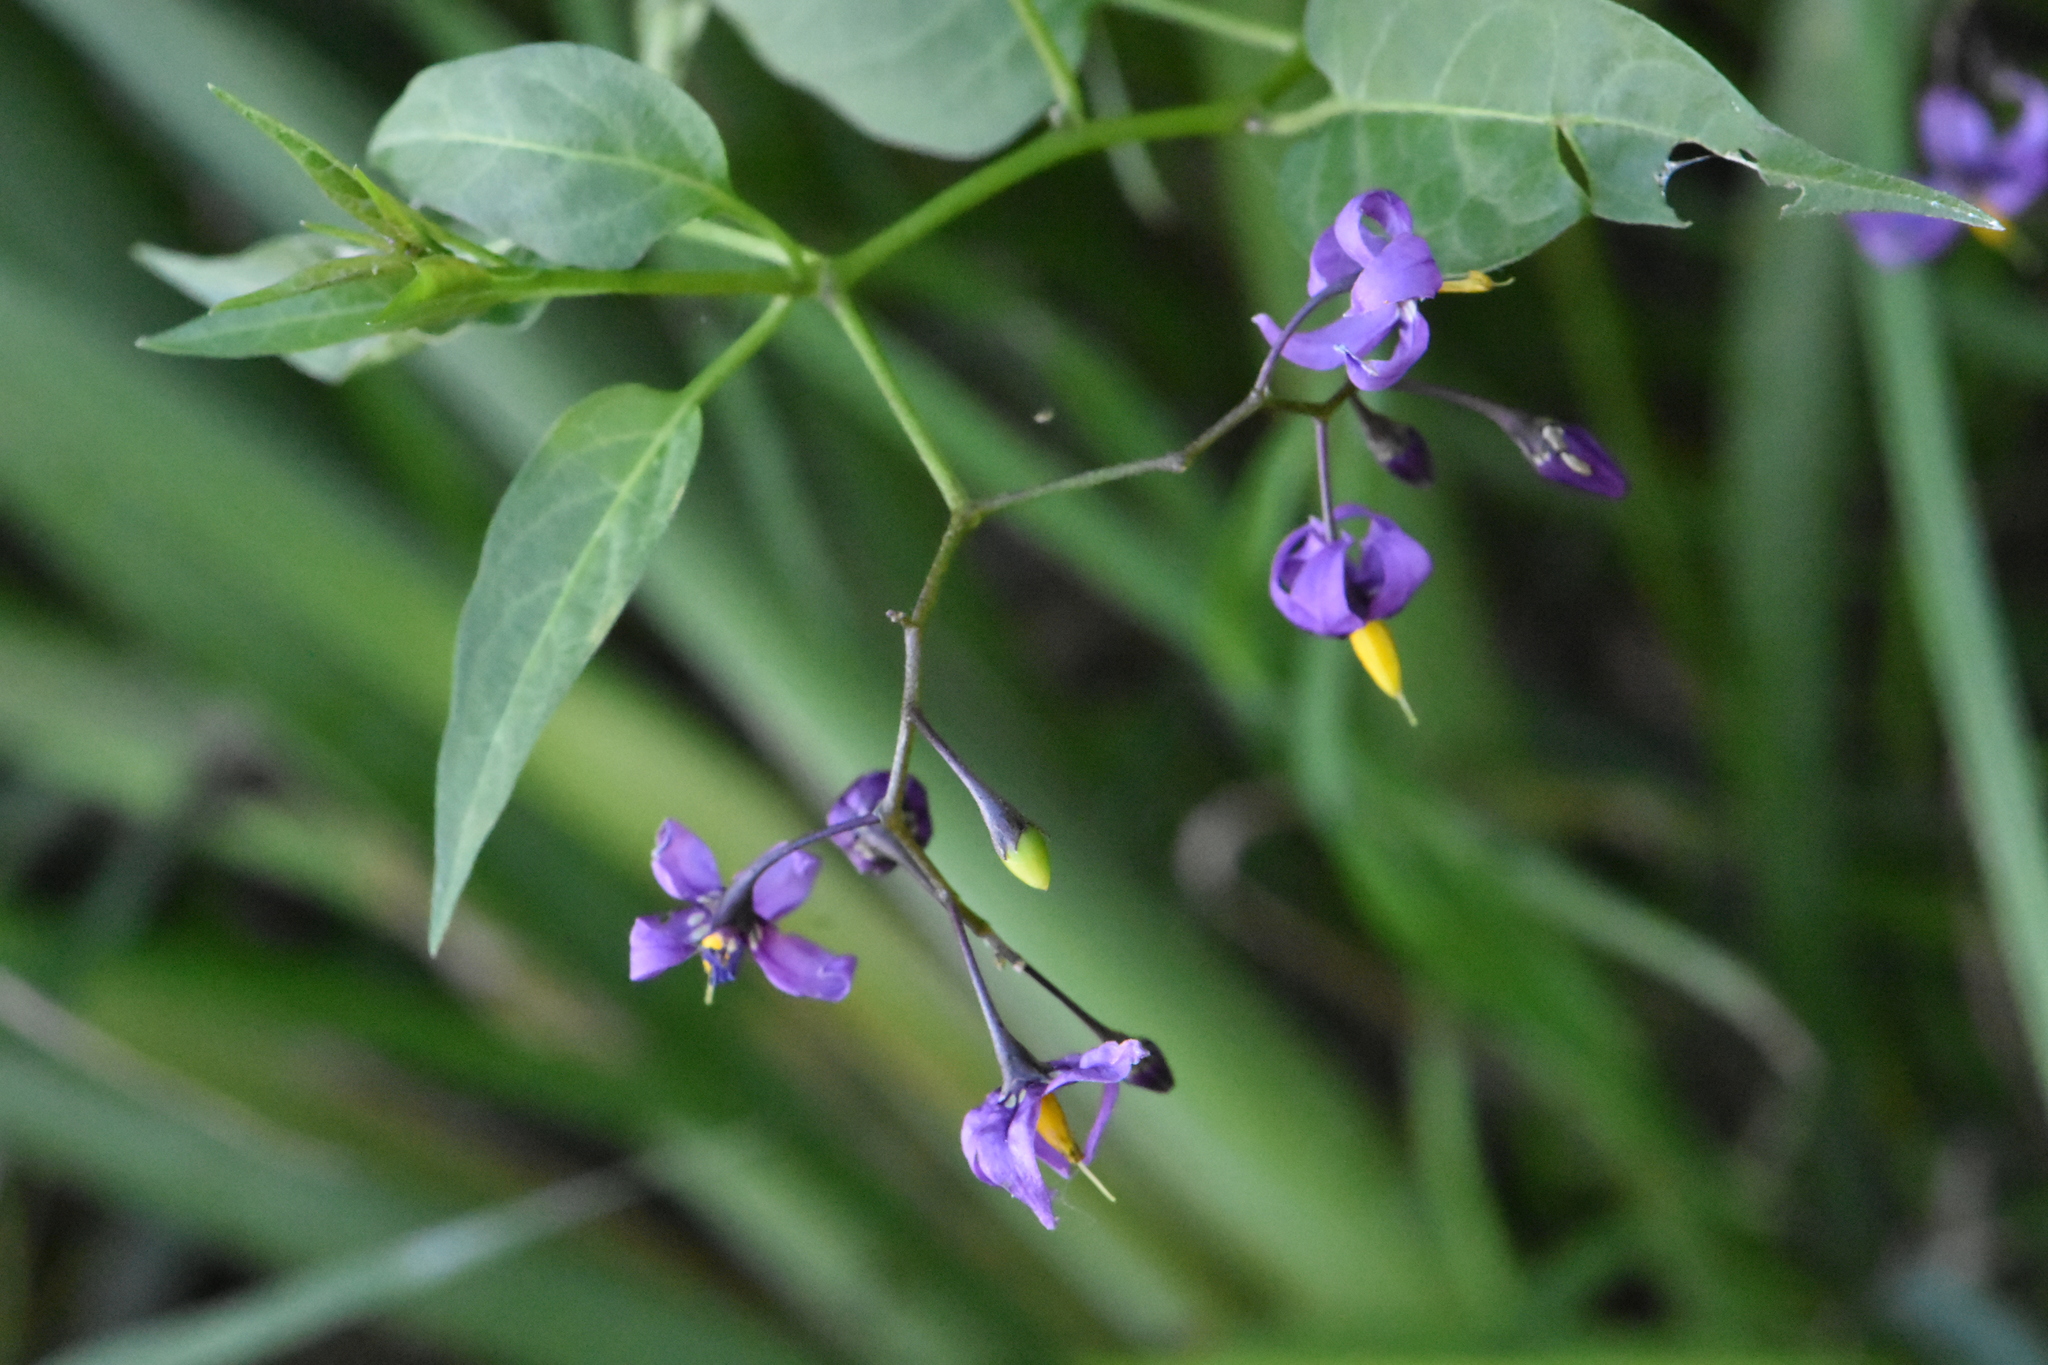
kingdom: Plantae
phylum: Tracheophyta
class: Magnoliopsida
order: Solanales
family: Solanaceae
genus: Solanum
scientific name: Solanum dulcamara
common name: Climbing nightshade
